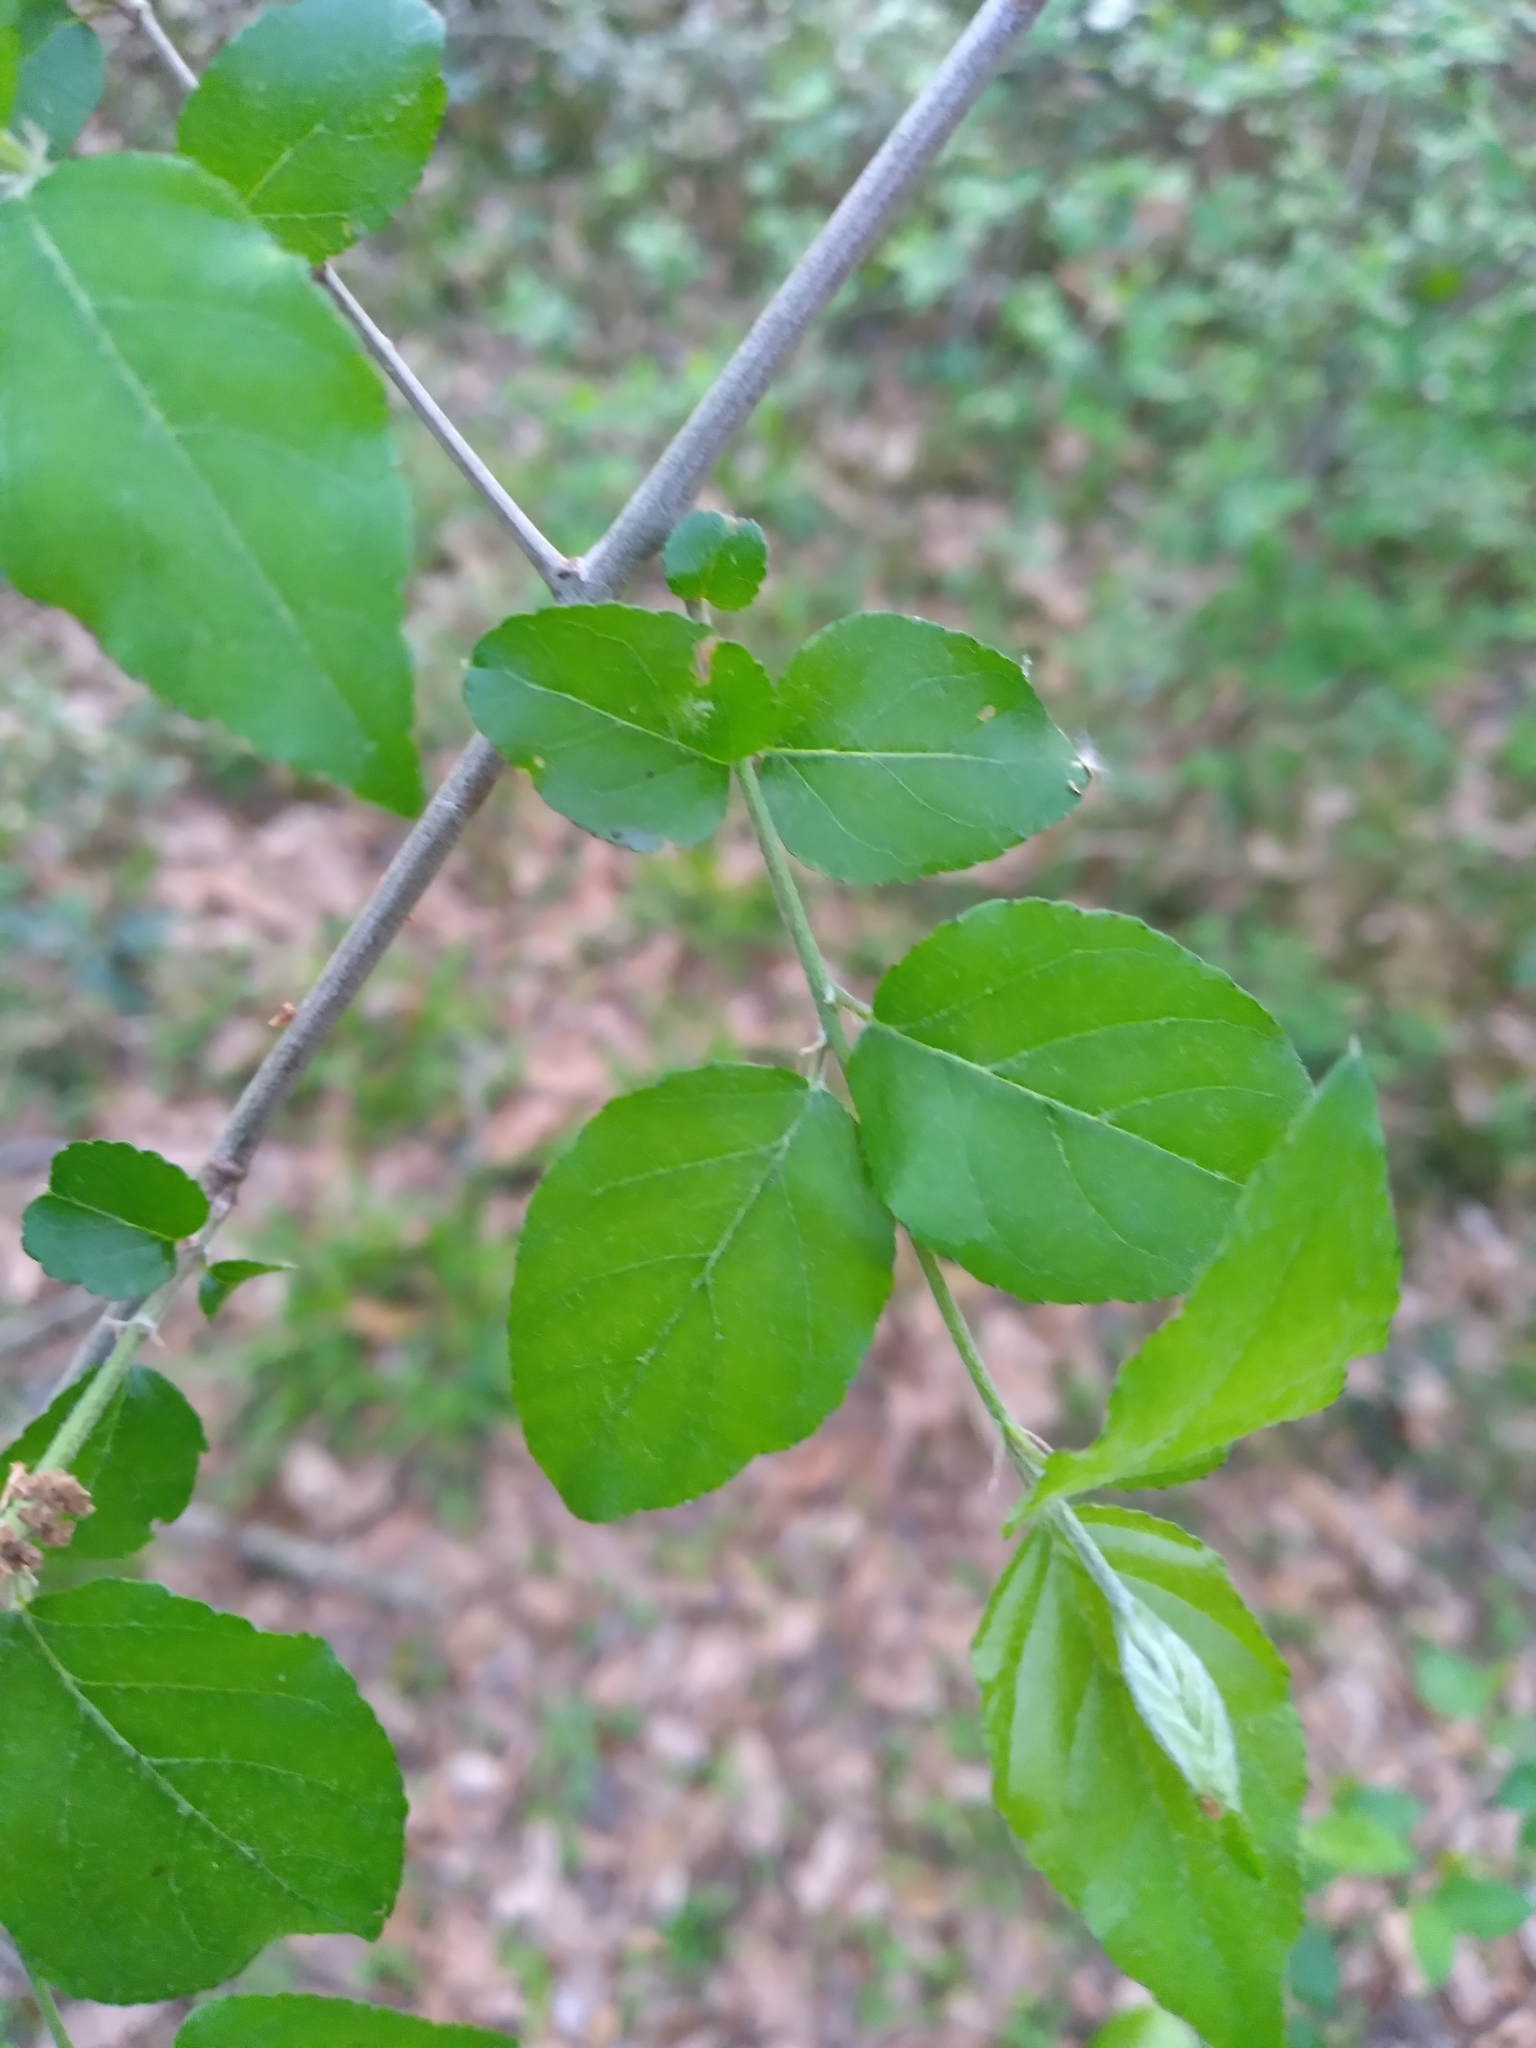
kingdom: Plantae
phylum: Tracheophyta
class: Magnoliopsida
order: Rosales
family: Rhamnaceae
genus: Sageretia
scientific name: Sageretia minutiflora
